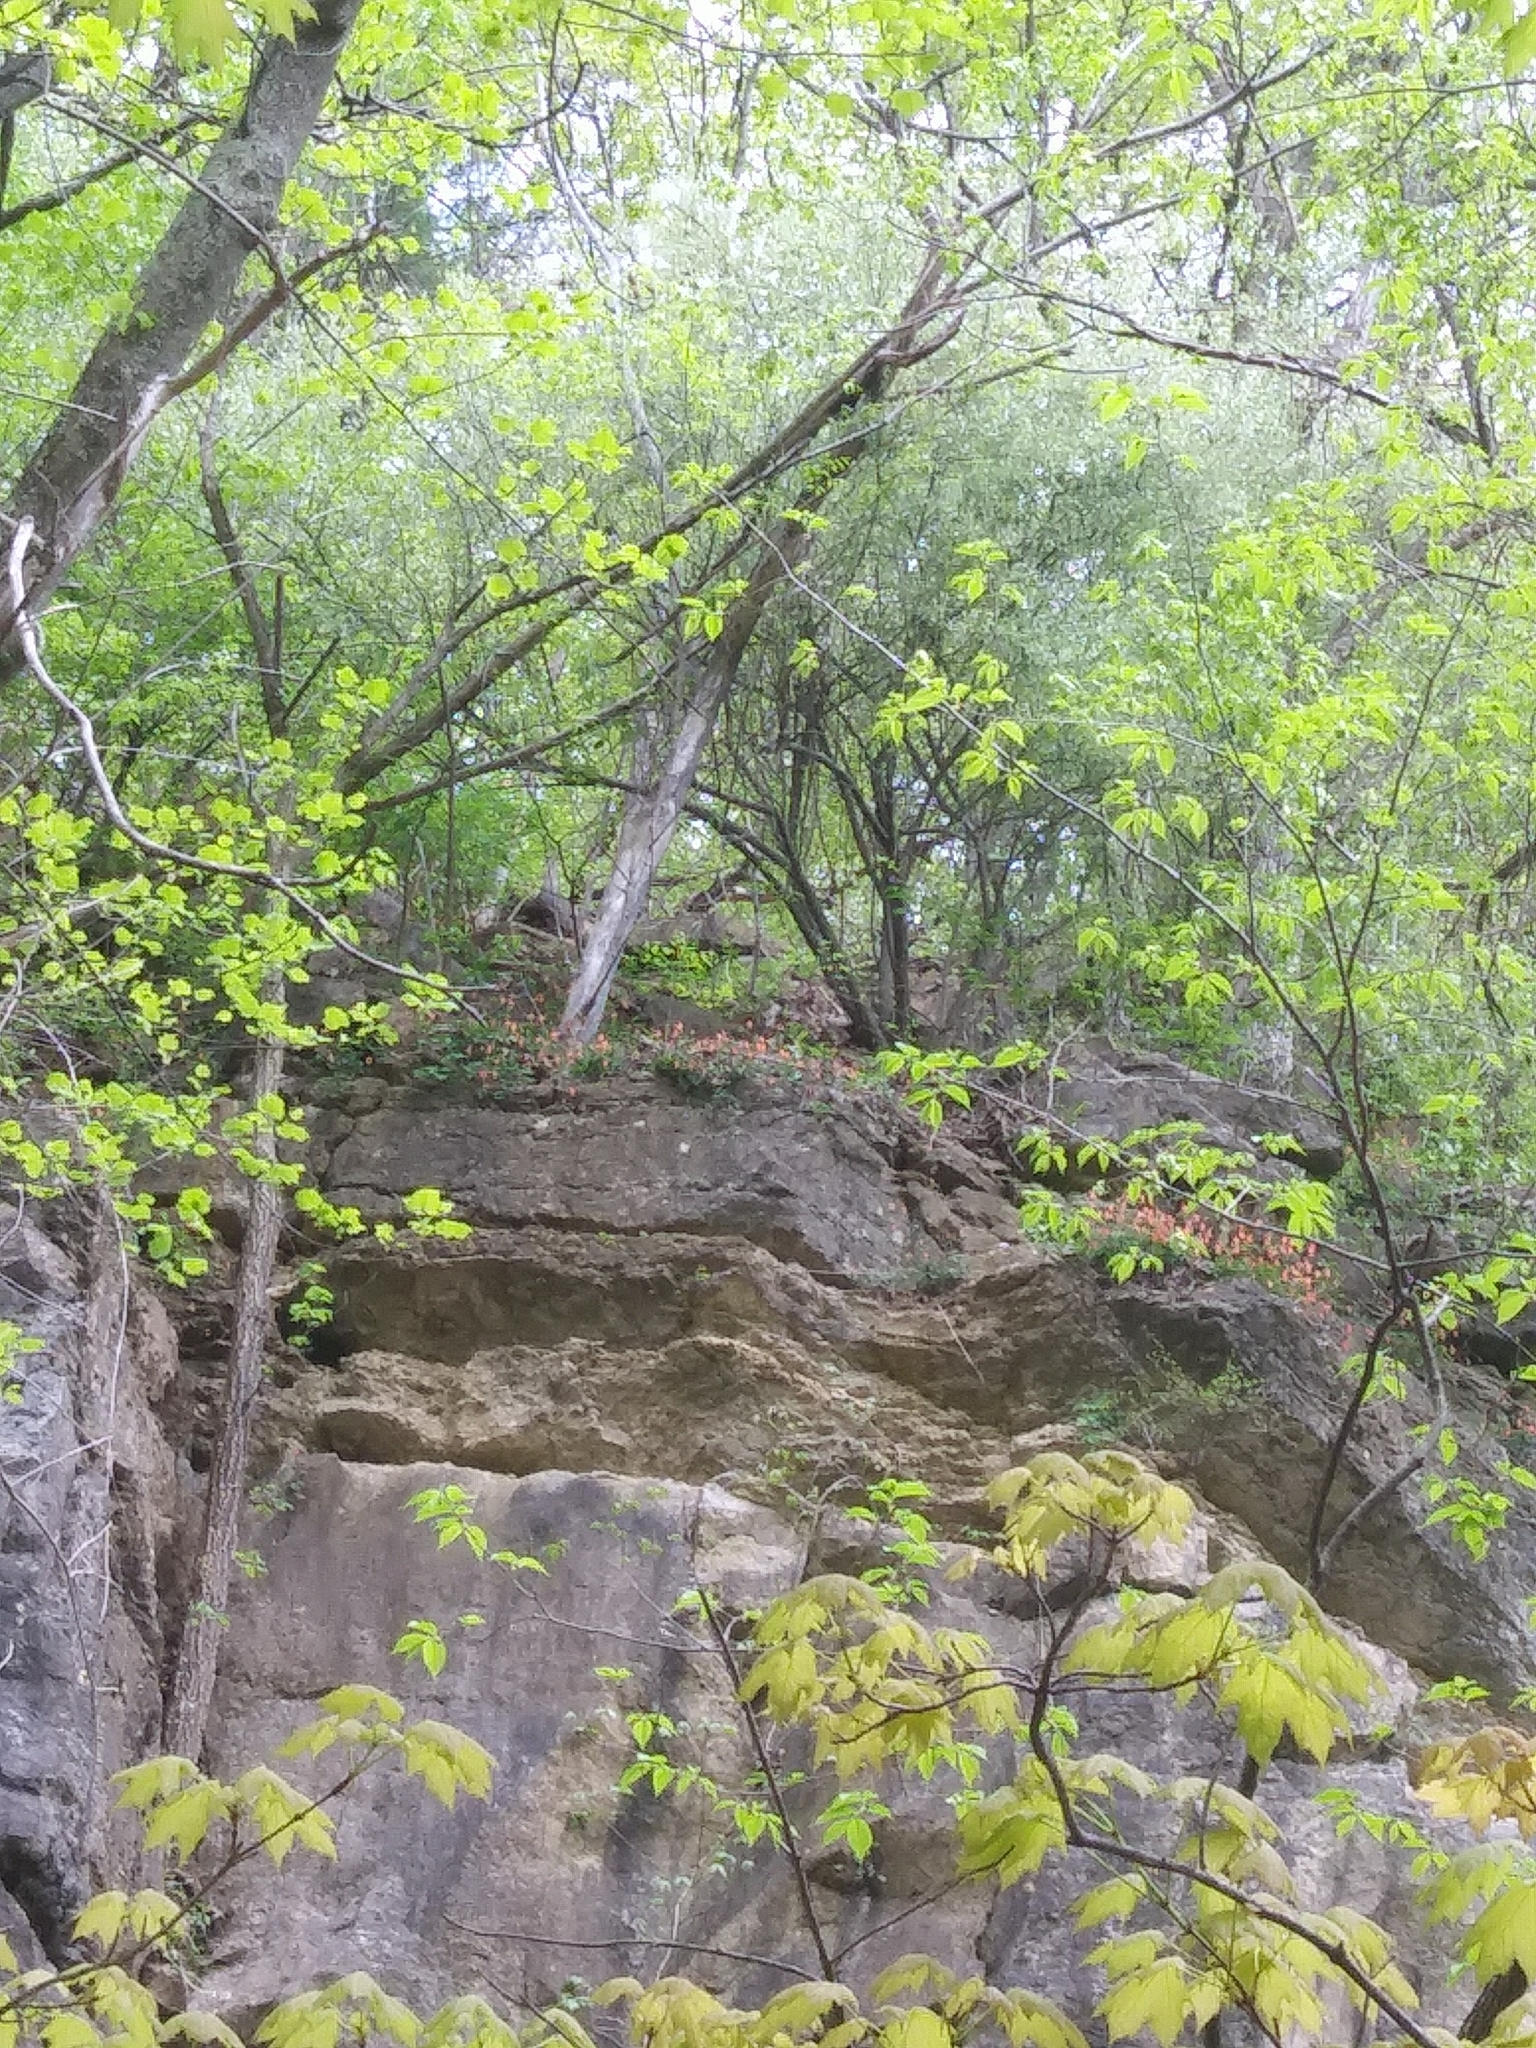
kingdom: Plantae
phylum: Tracheophyta
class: Magnoliopsida
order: Ranunculales
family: Ranunculaceae
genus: Aquilegia
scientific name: Aquilegia canadensis
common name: American columbine
